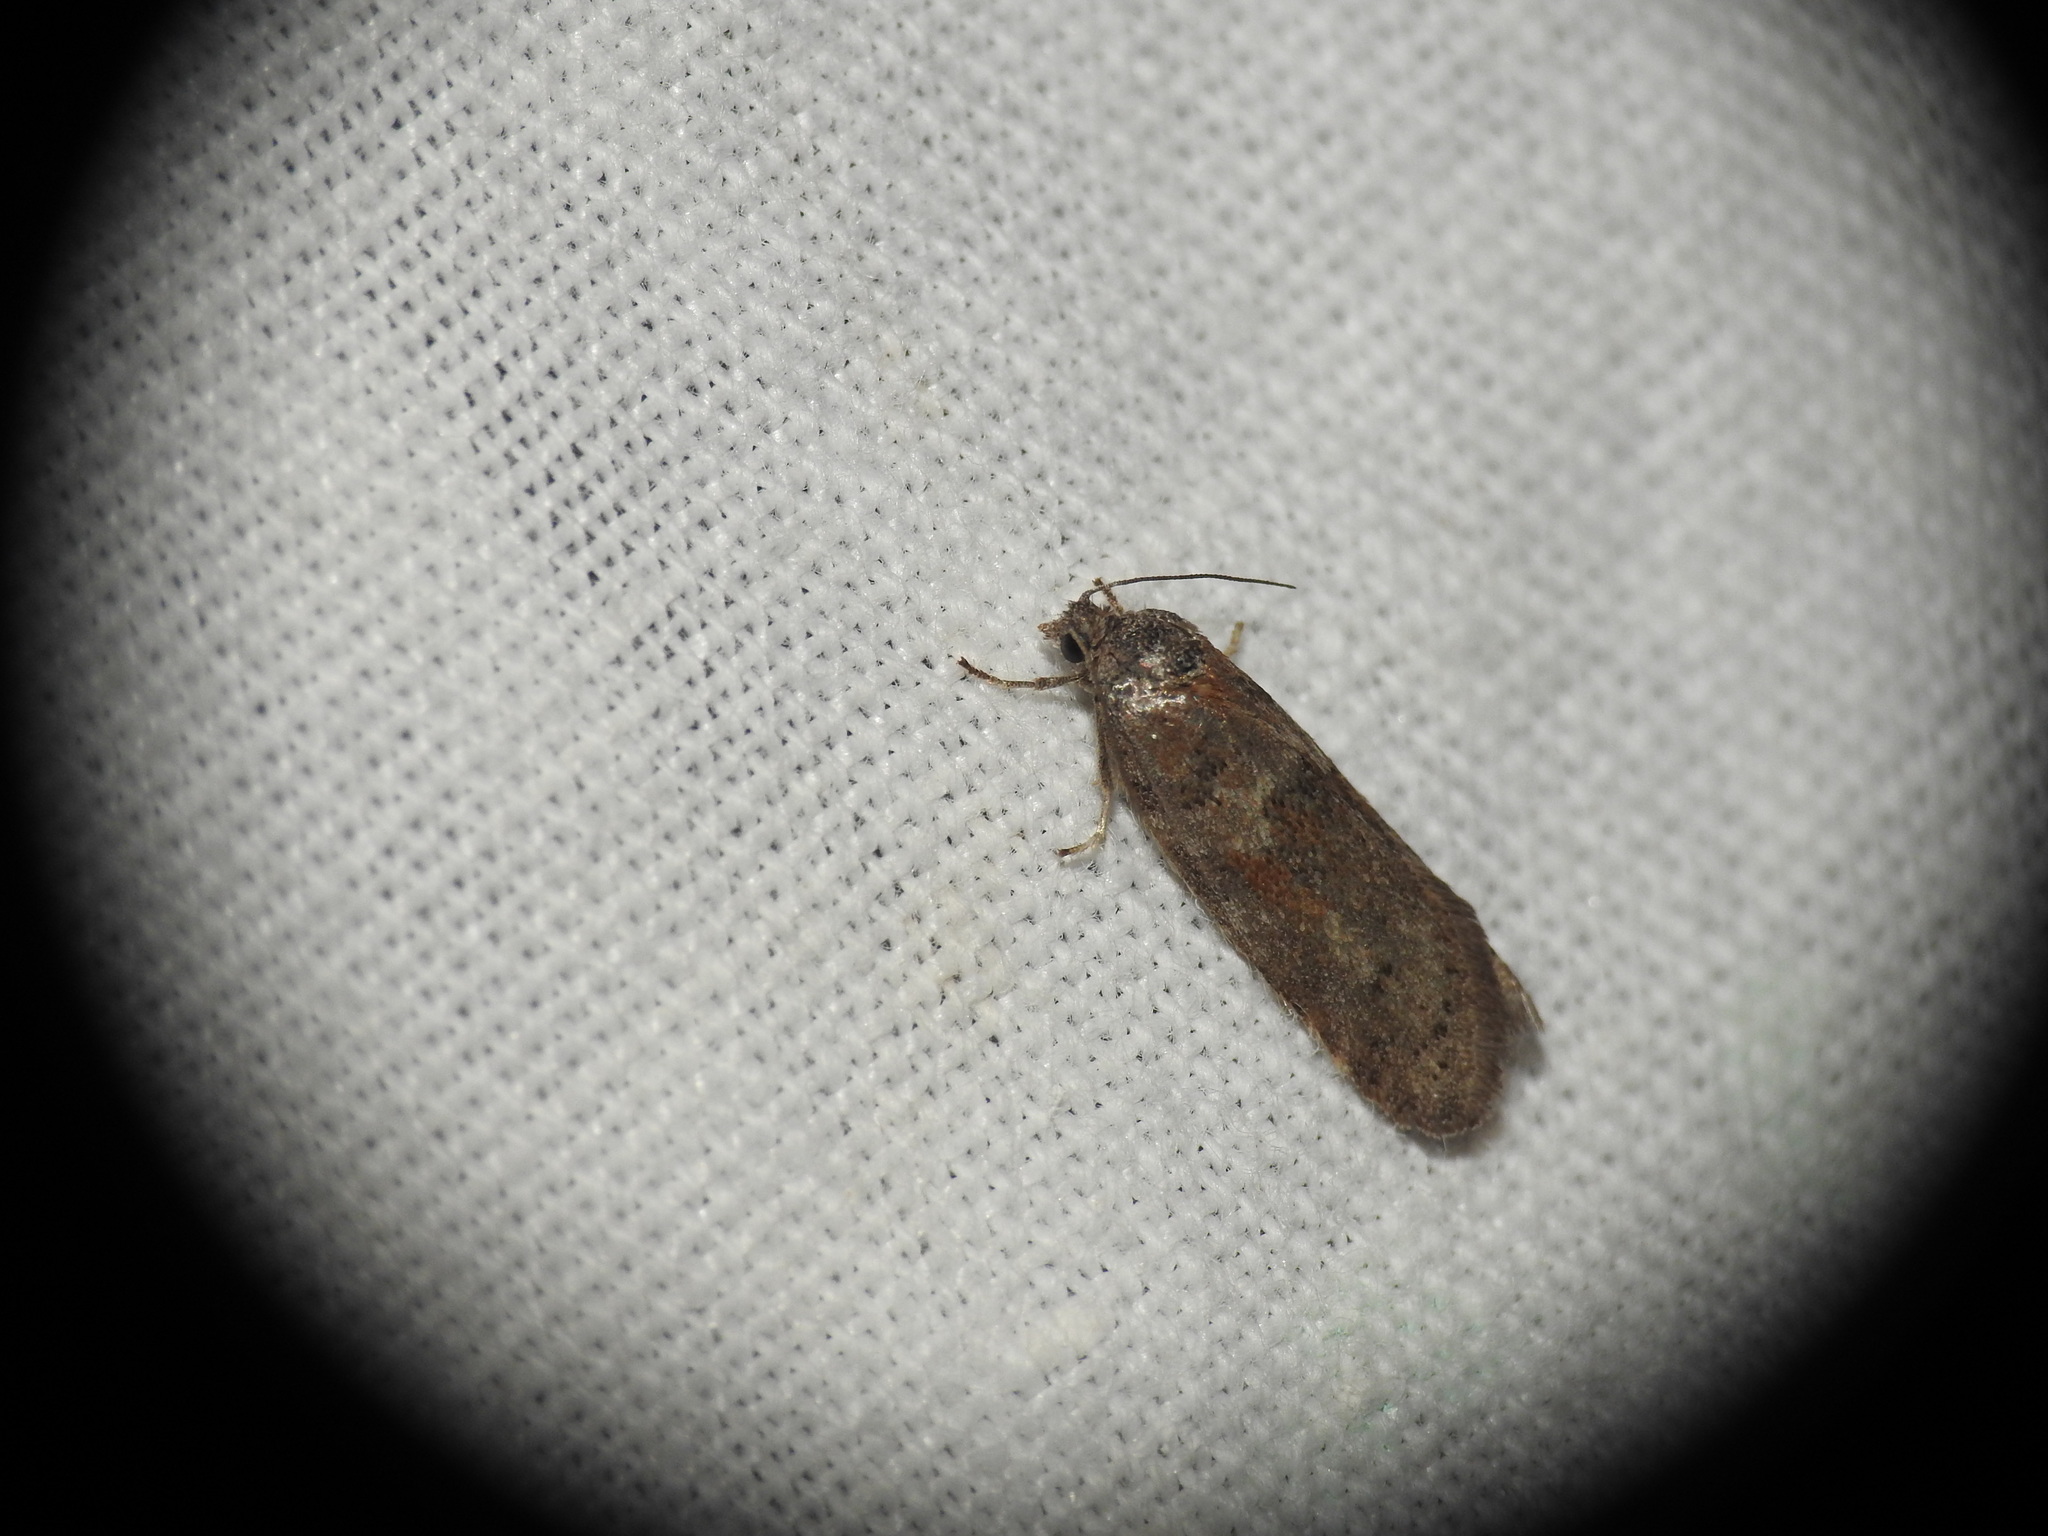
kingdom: Animalia
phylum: Arthropoda
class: Insecta
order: Lepidoptera
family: Tortricidae
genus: Tortricodes
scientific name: Tortricodes alternella
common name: Winter shade
